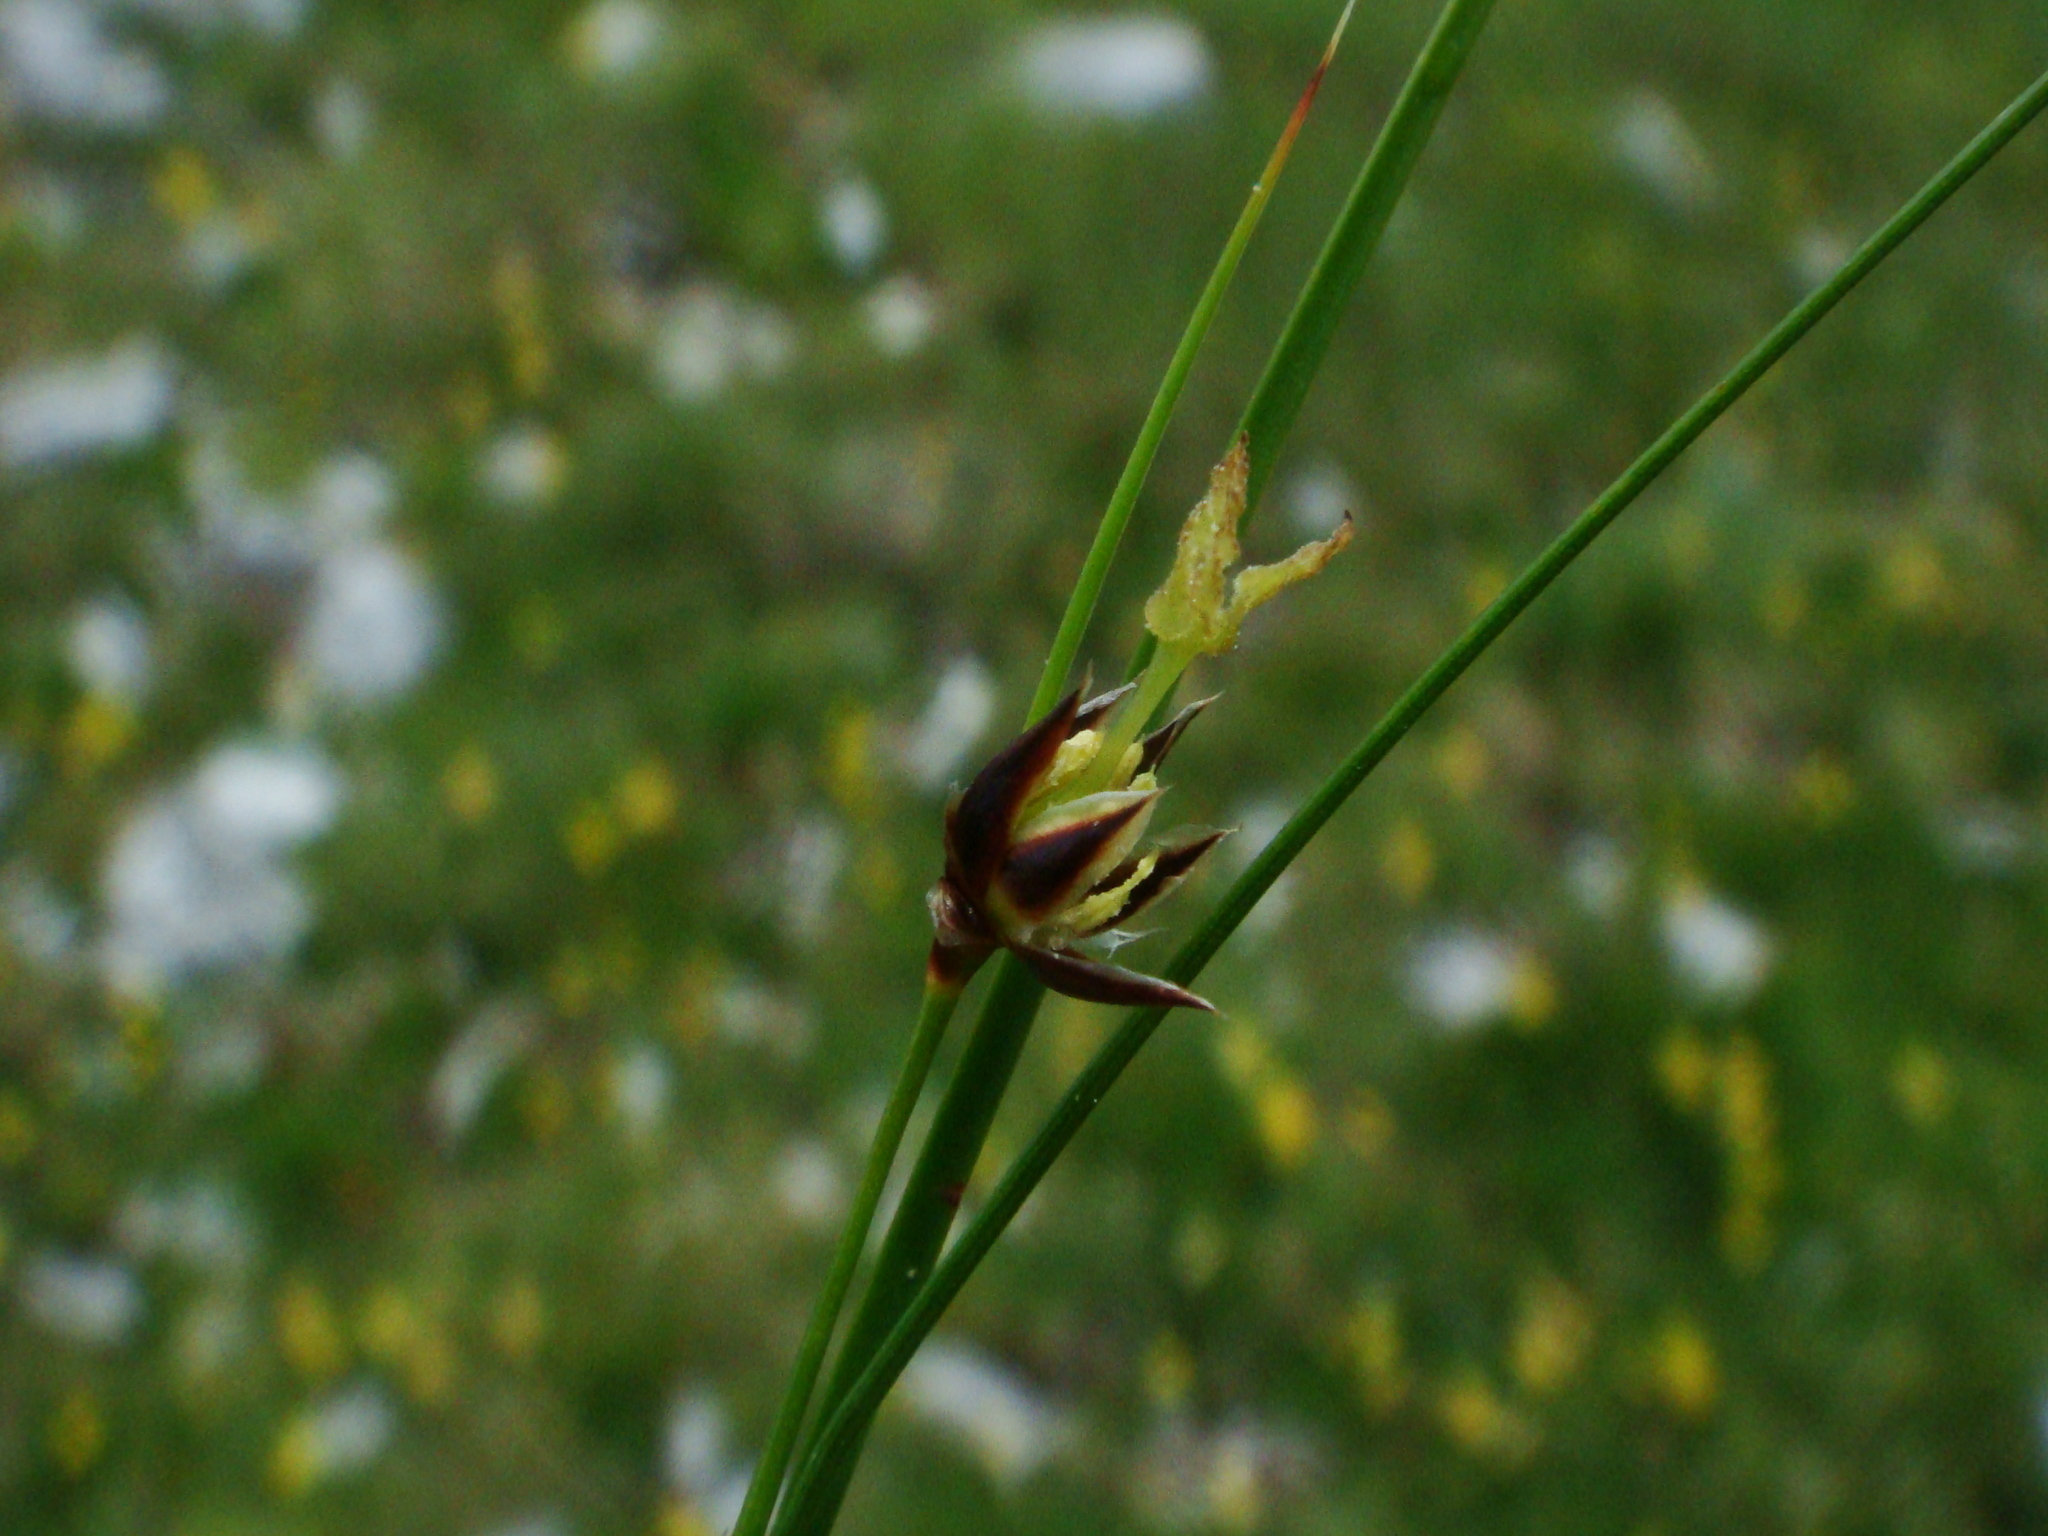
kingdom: Plantae
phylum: Tracheophyta
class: Liliopsida
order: Poales
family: Juncaceae
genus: Oreojuncus
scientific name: Oreojuncus monanthos
